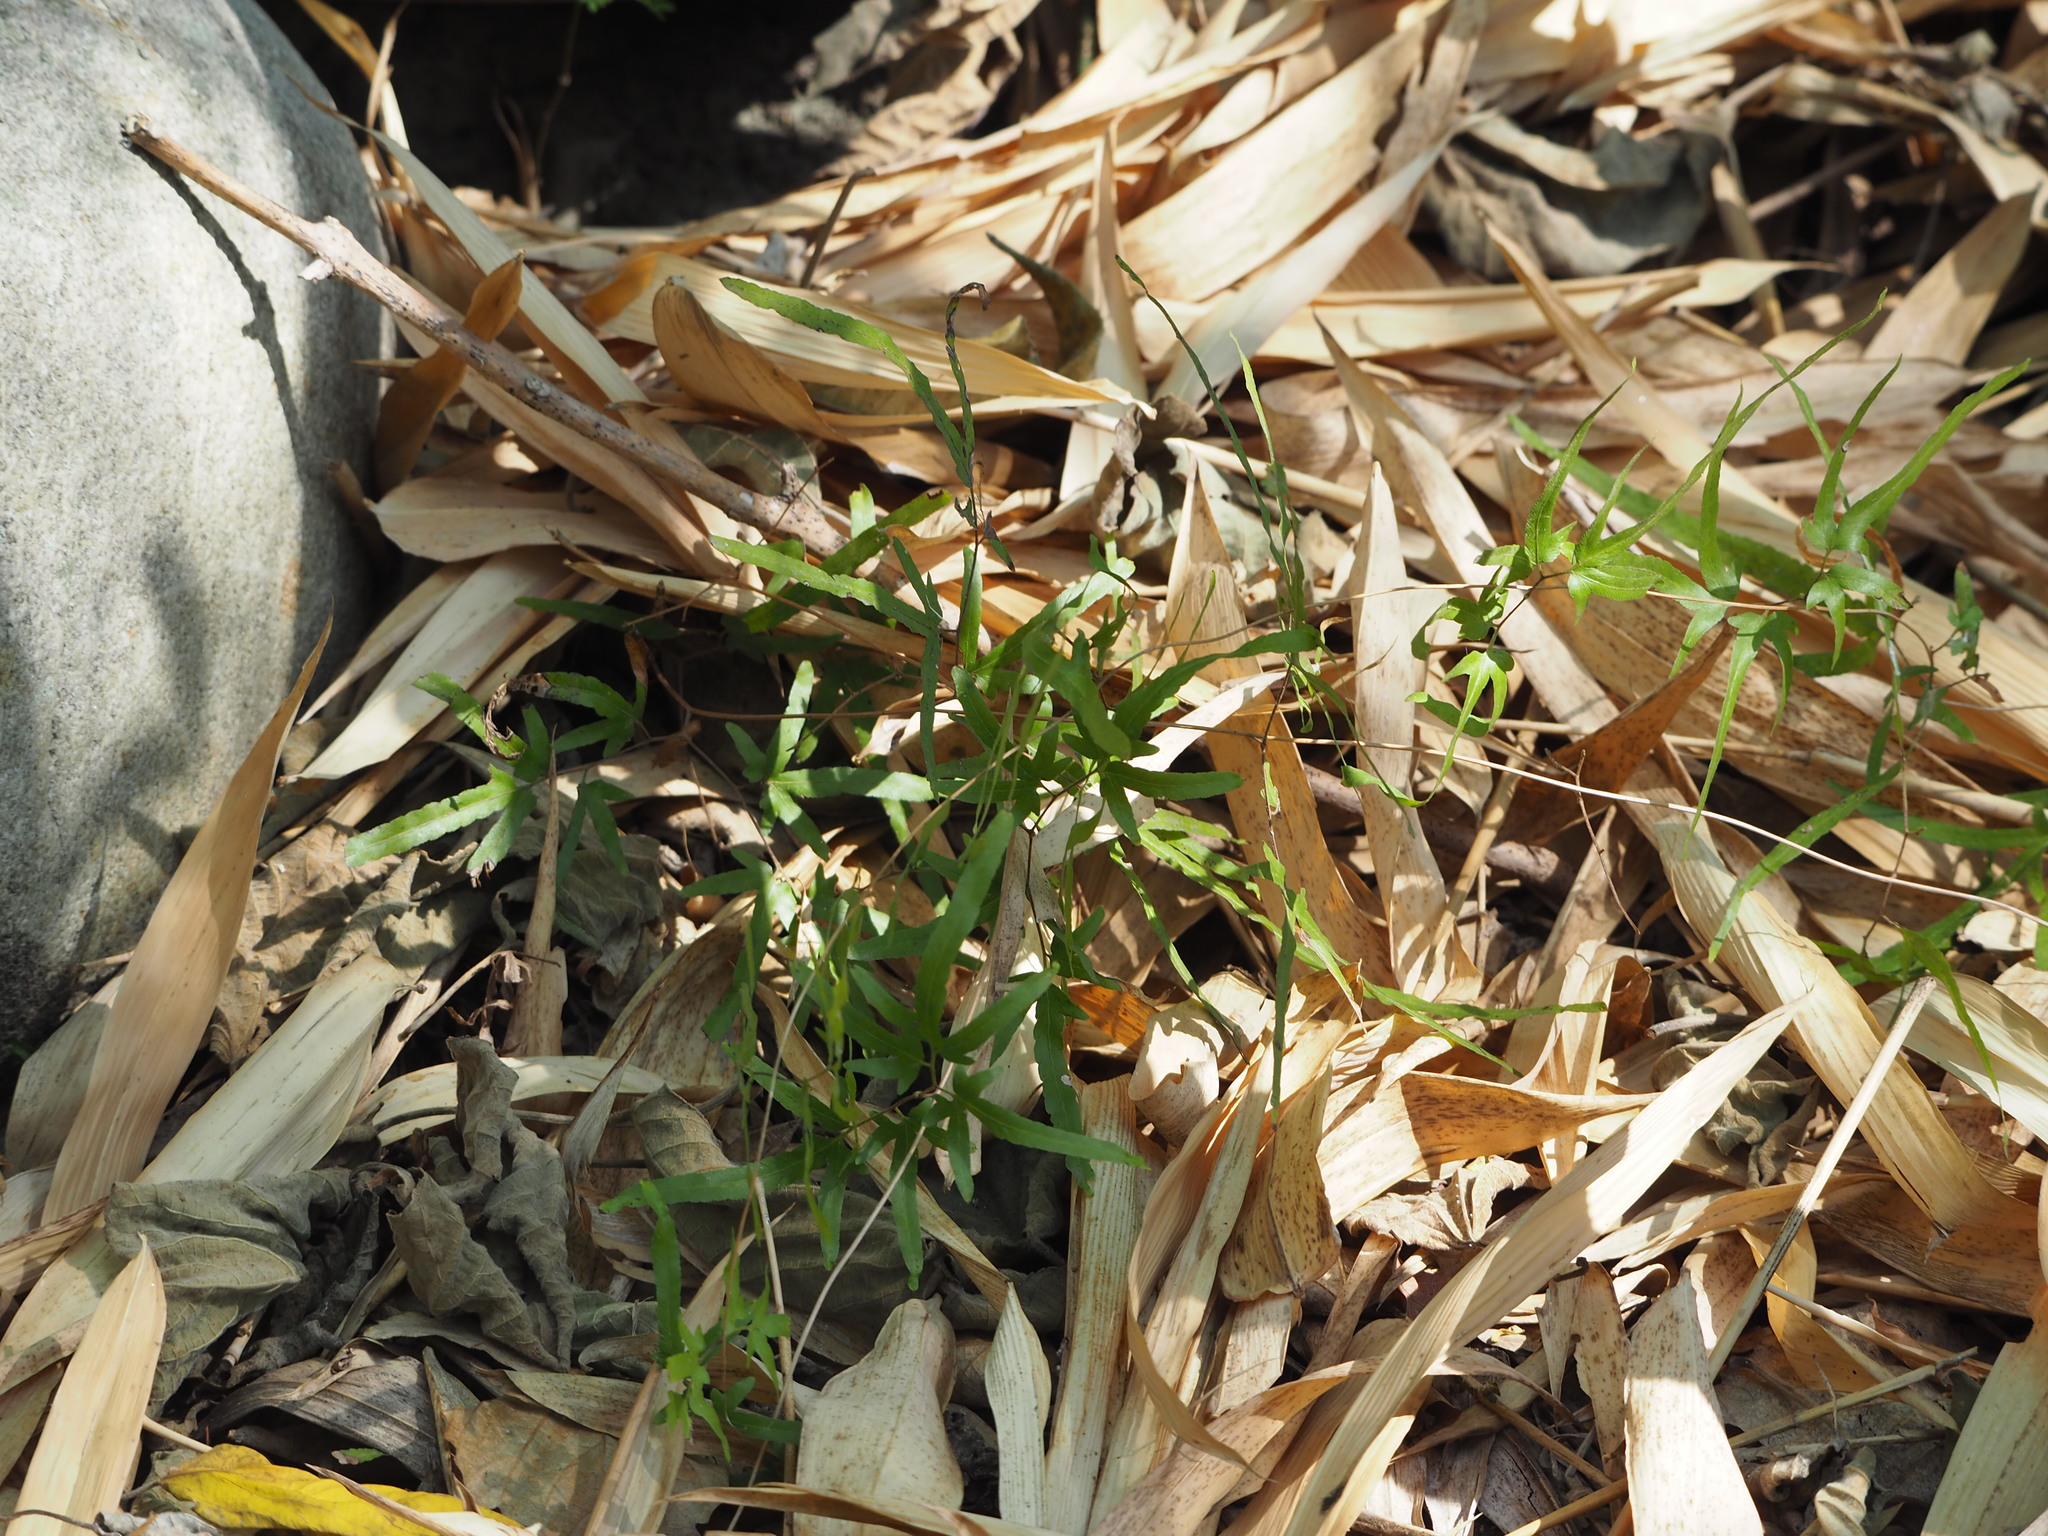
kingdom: Plantae
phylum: Tracheophyta
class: Polypodiopsida
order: Schizaeales
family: Lygodiaceae
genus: Lygodium
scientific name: Lygodium japonicum
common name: Japanese climbing fern
